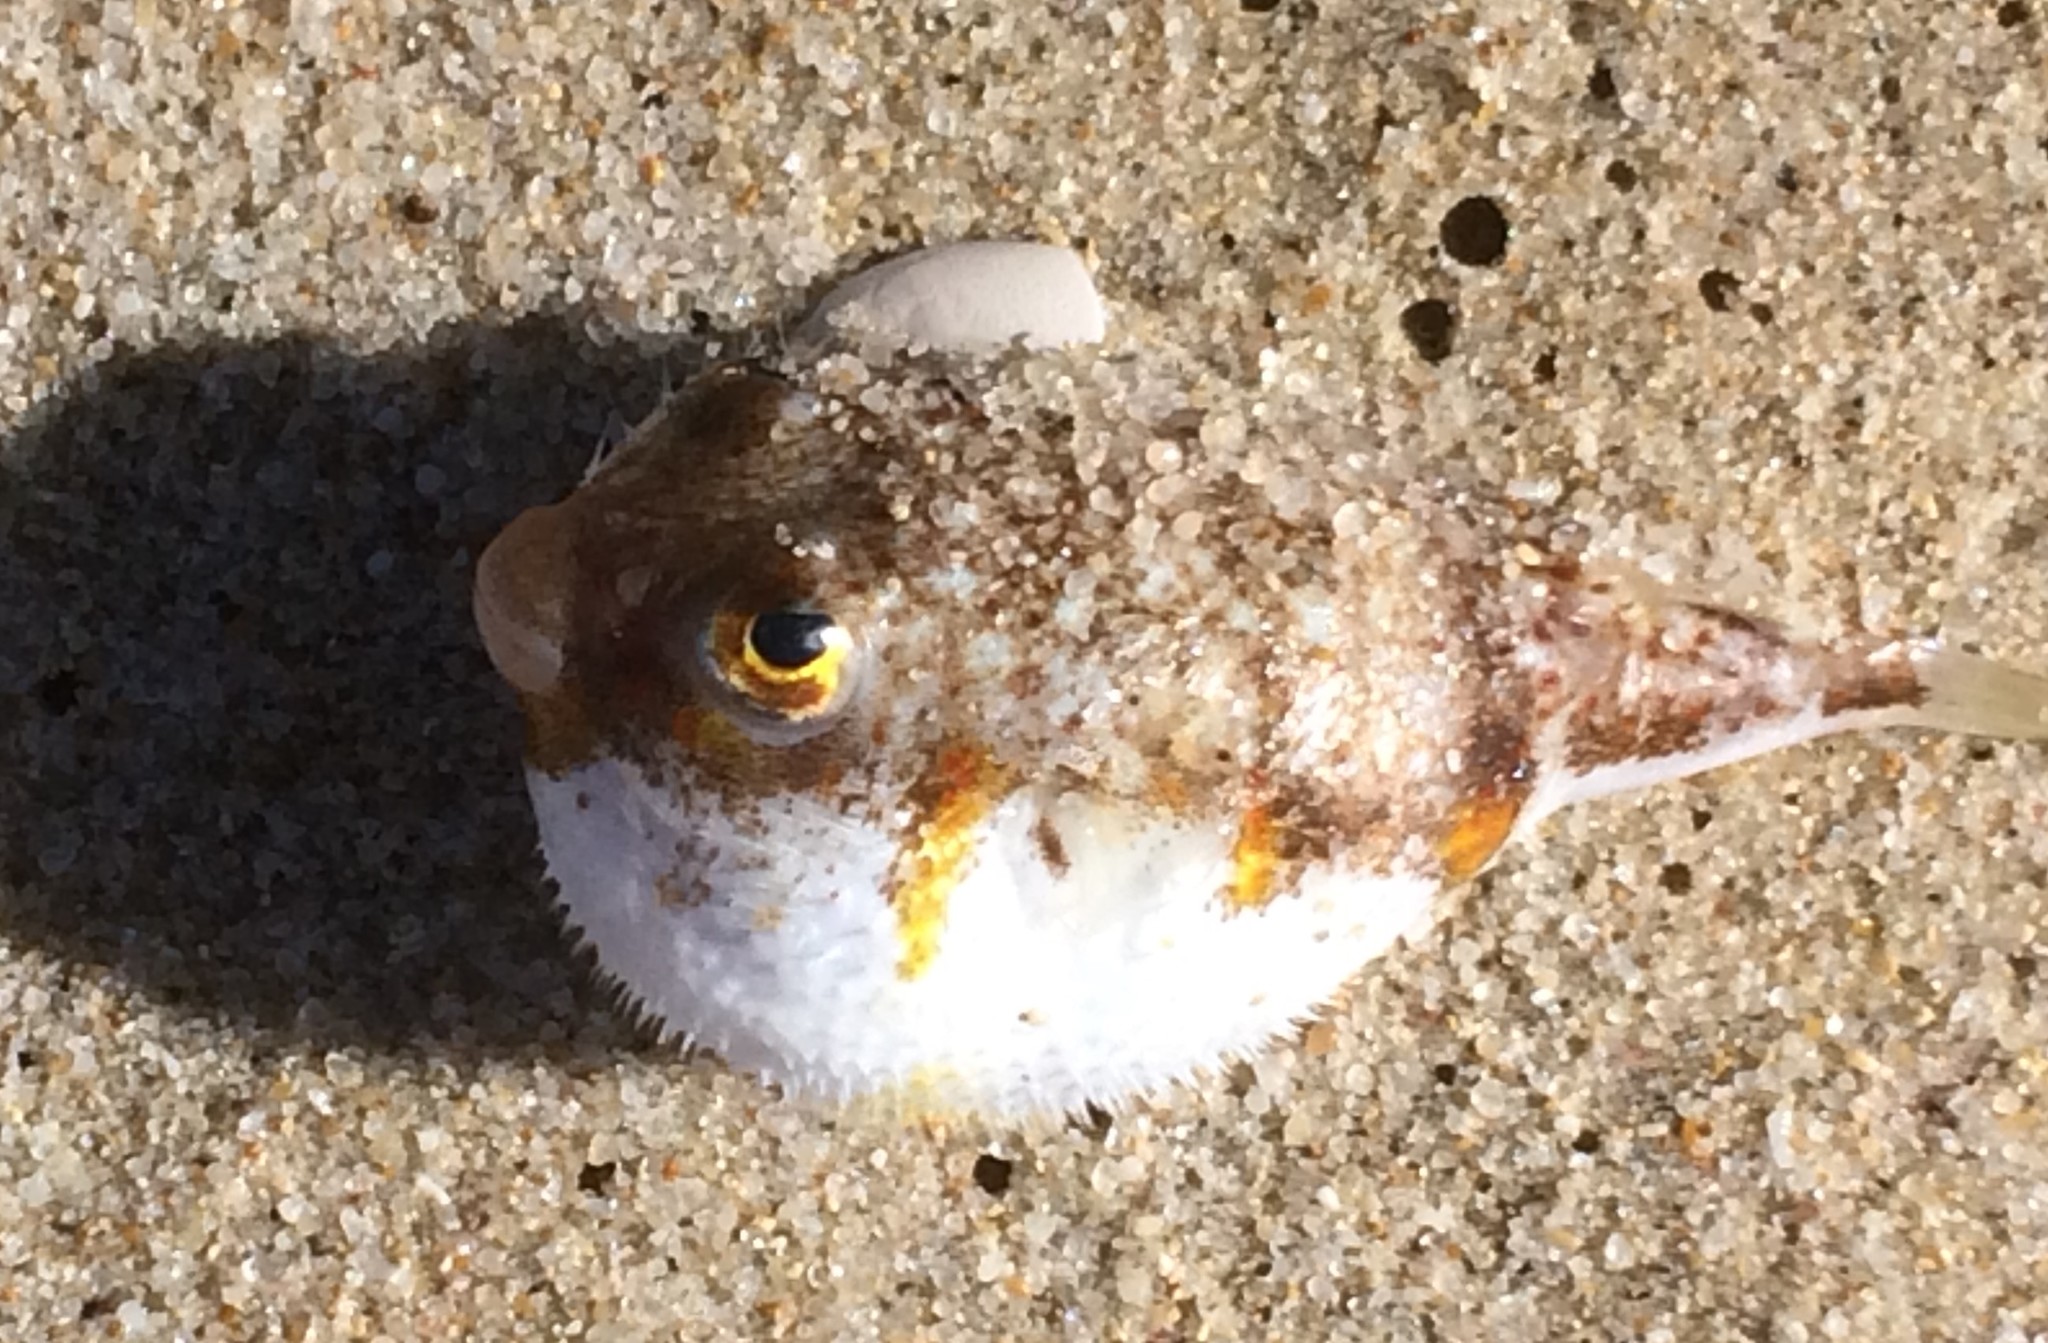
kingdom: Animalia
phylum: Chordata
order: Tetraodontiformes
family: Tetraodontidae
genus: Polyspina
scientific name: Polyspina piosae
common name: Orange-barred pufferfish
